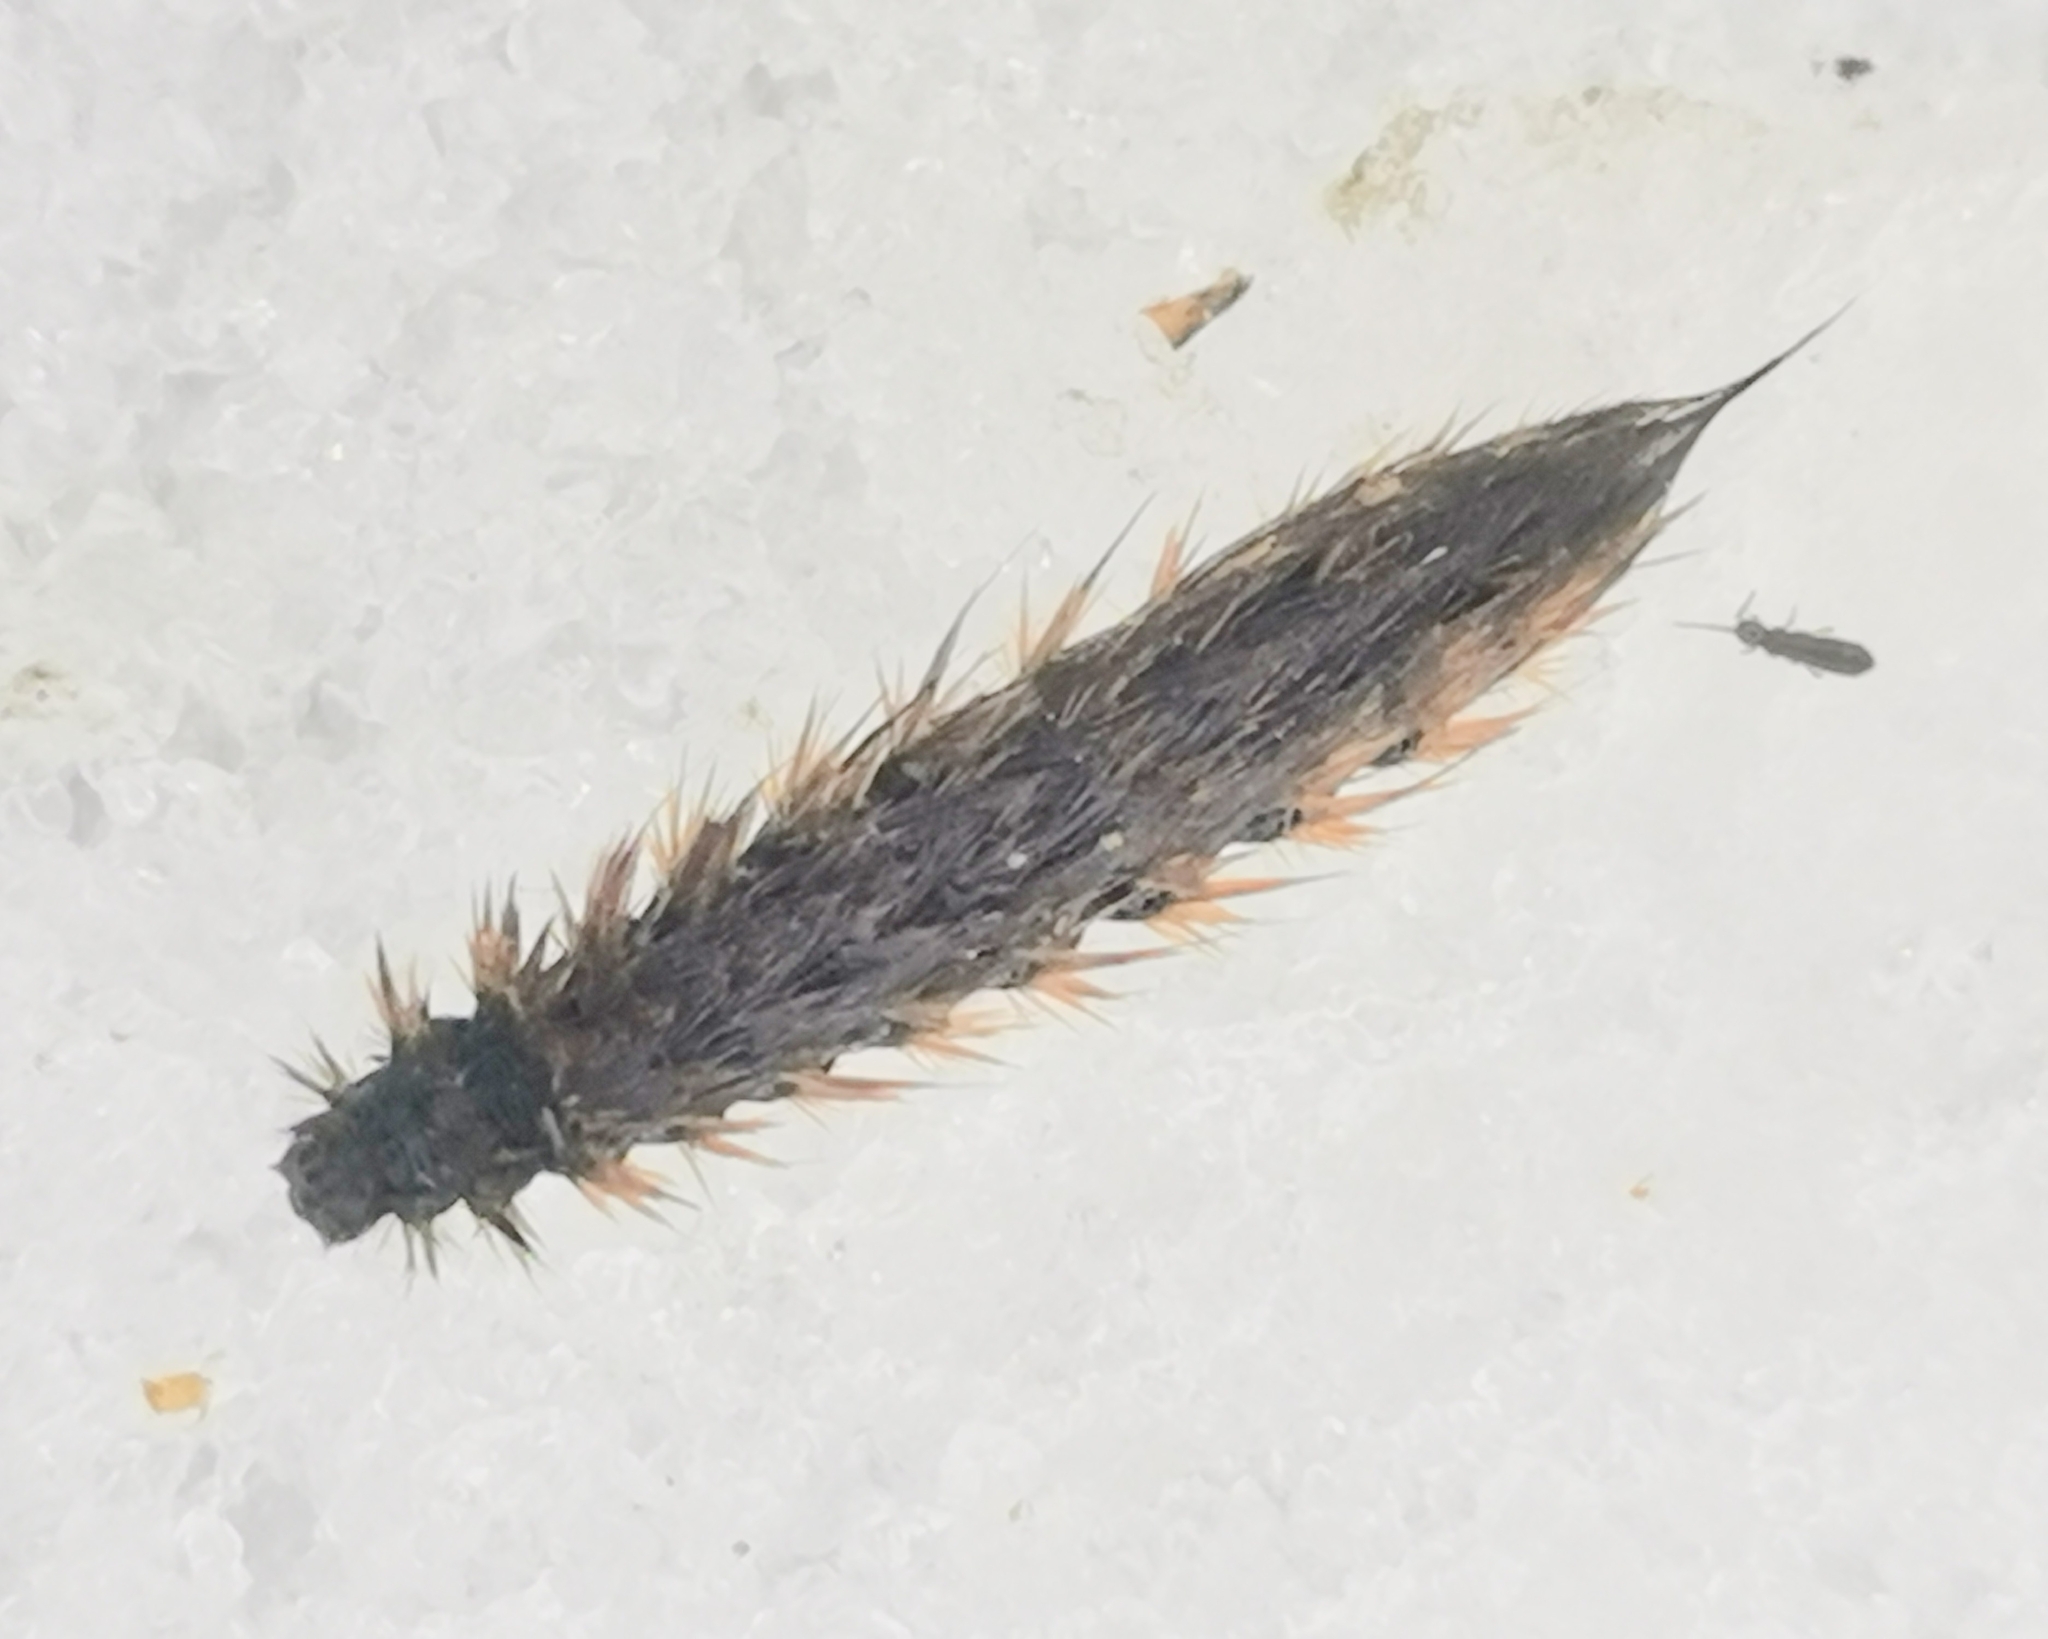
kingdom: Animalia
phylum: Arthropoda
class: Insecta
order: Lepidoptera
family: Erebidae
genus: Phragmatobia
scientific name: Phragmatobia fuliginosa
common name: Ruby tiger
